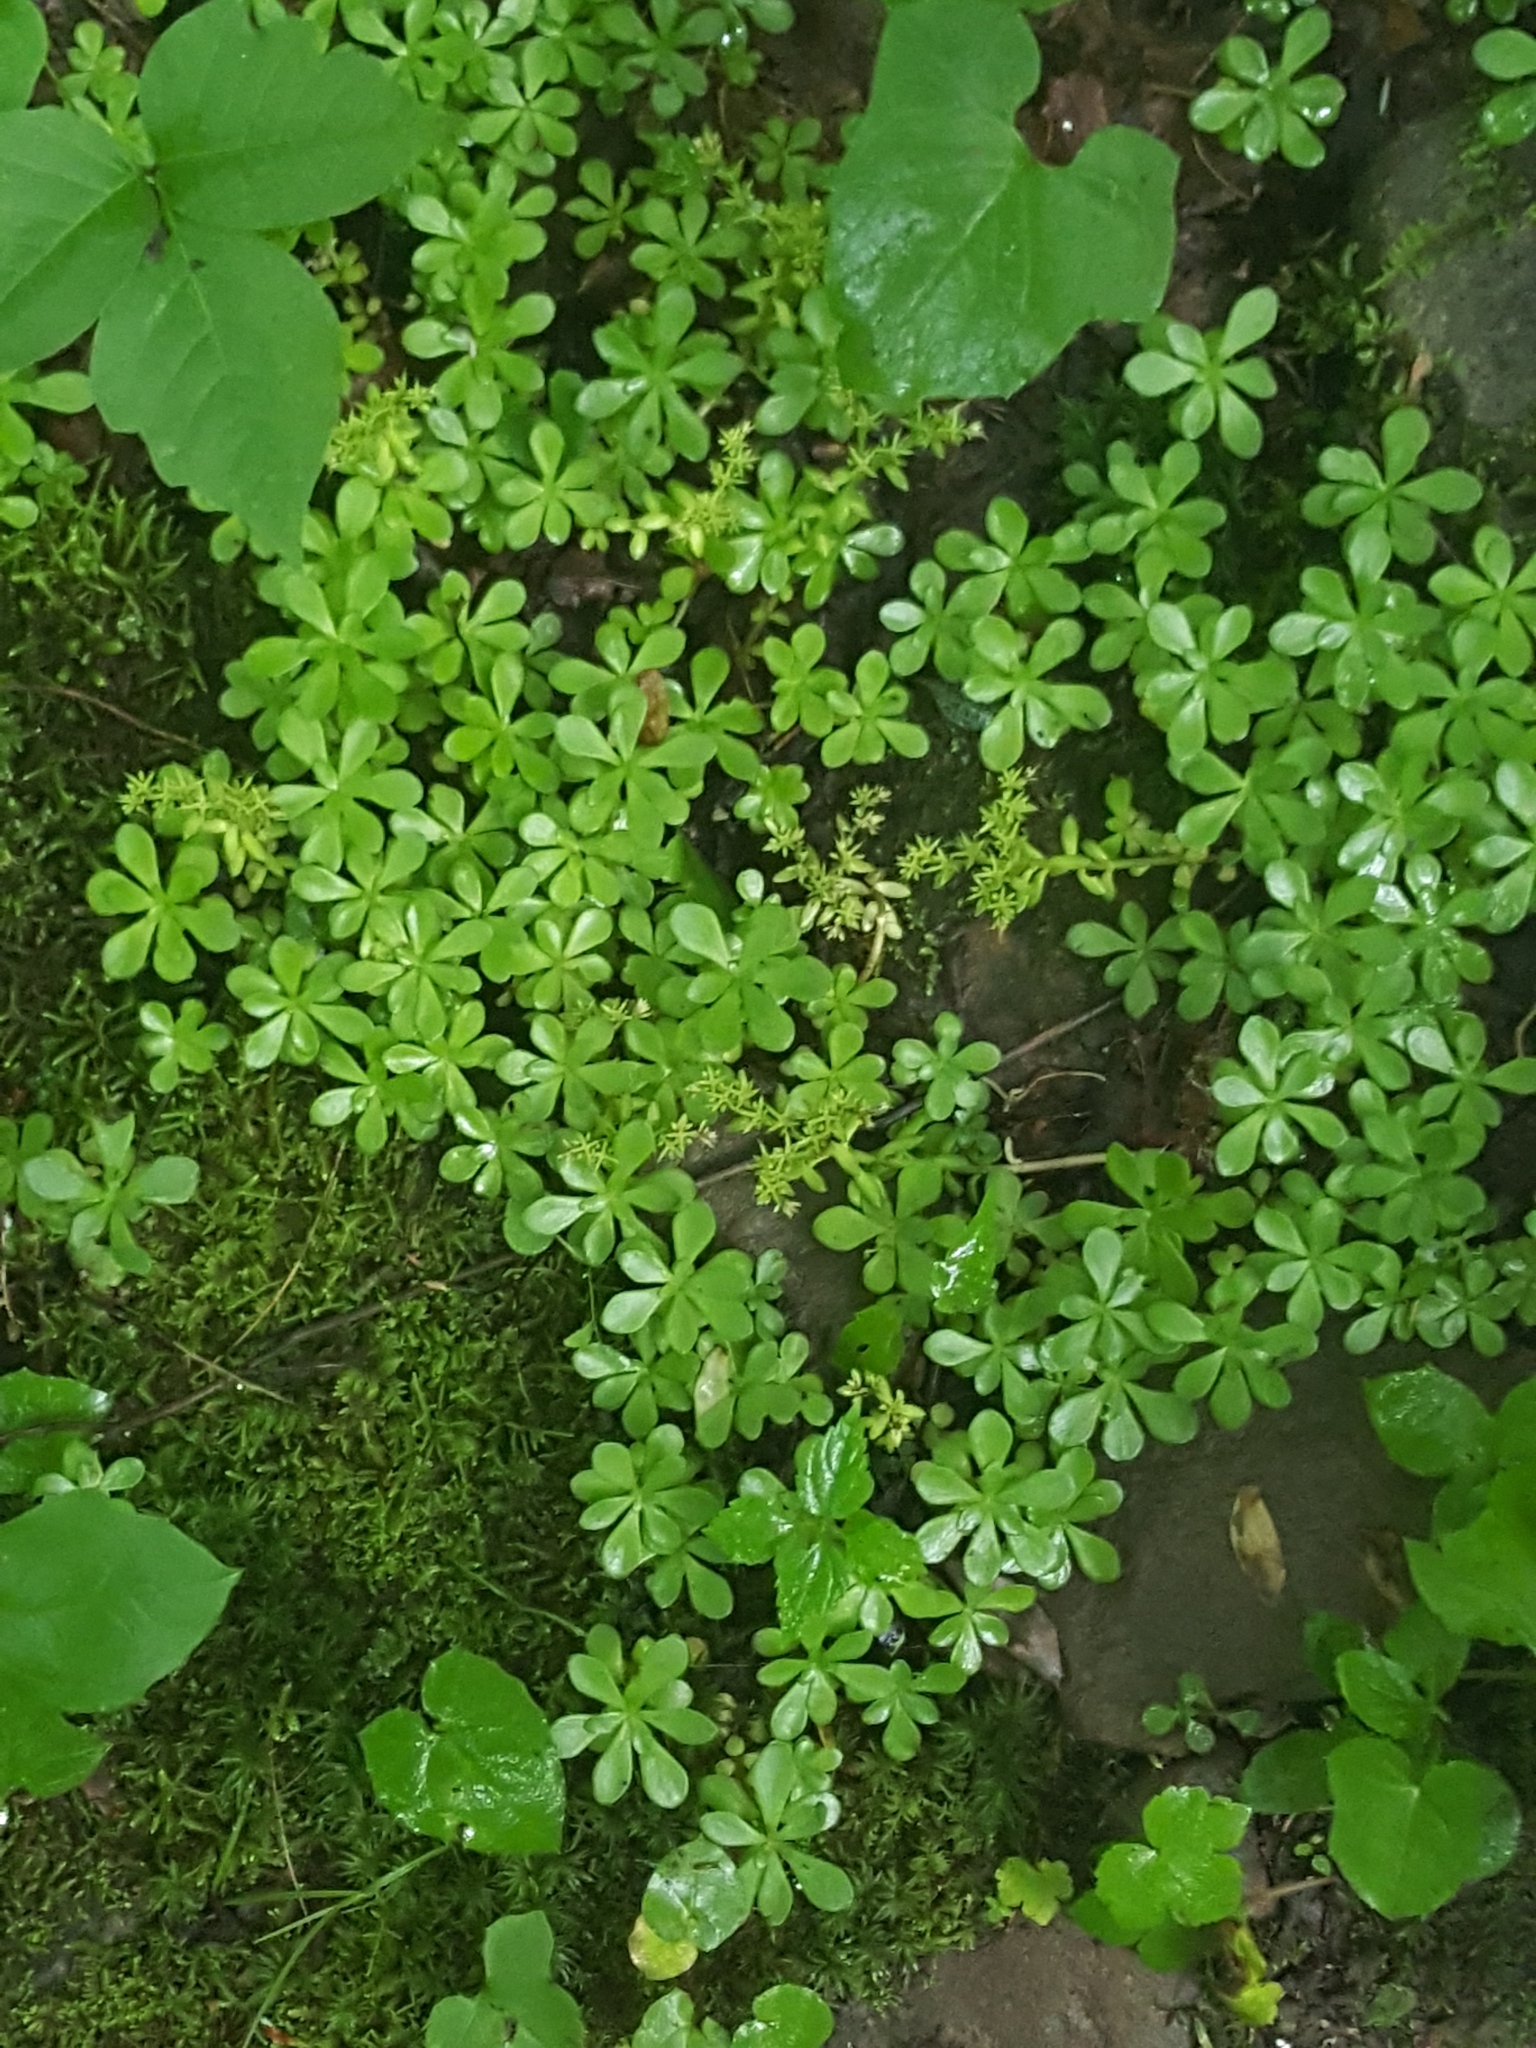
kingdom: Plantae
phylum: Tracheophyta
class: Magnoliopsida
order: Saxifragales
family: Crassulaceae
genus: Sedum
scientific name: Sedum ternatum
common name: Wild stonecrop
